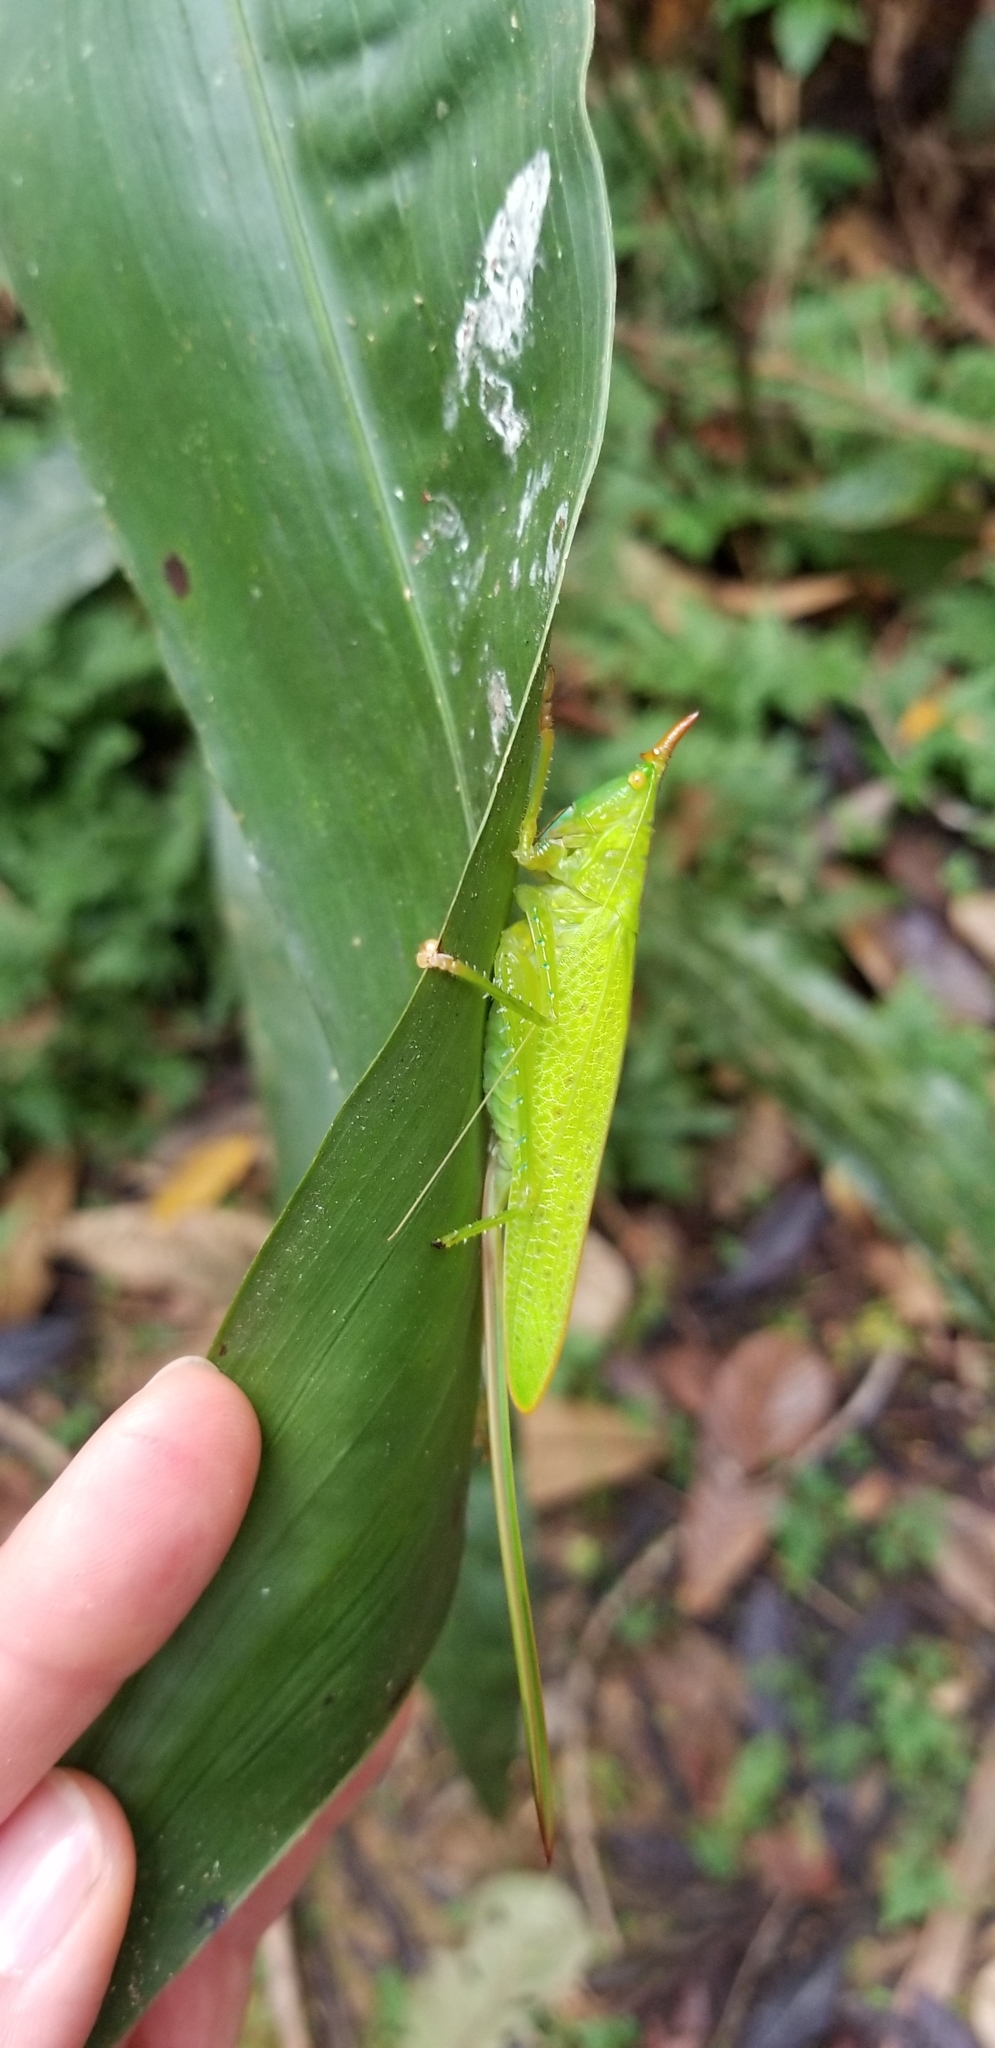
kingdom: Animalia
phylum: Arthropoda
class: Insecta
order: Orthoptera
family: Tettigoniidae
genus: Copiphora
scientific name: Copiphora longicauda
